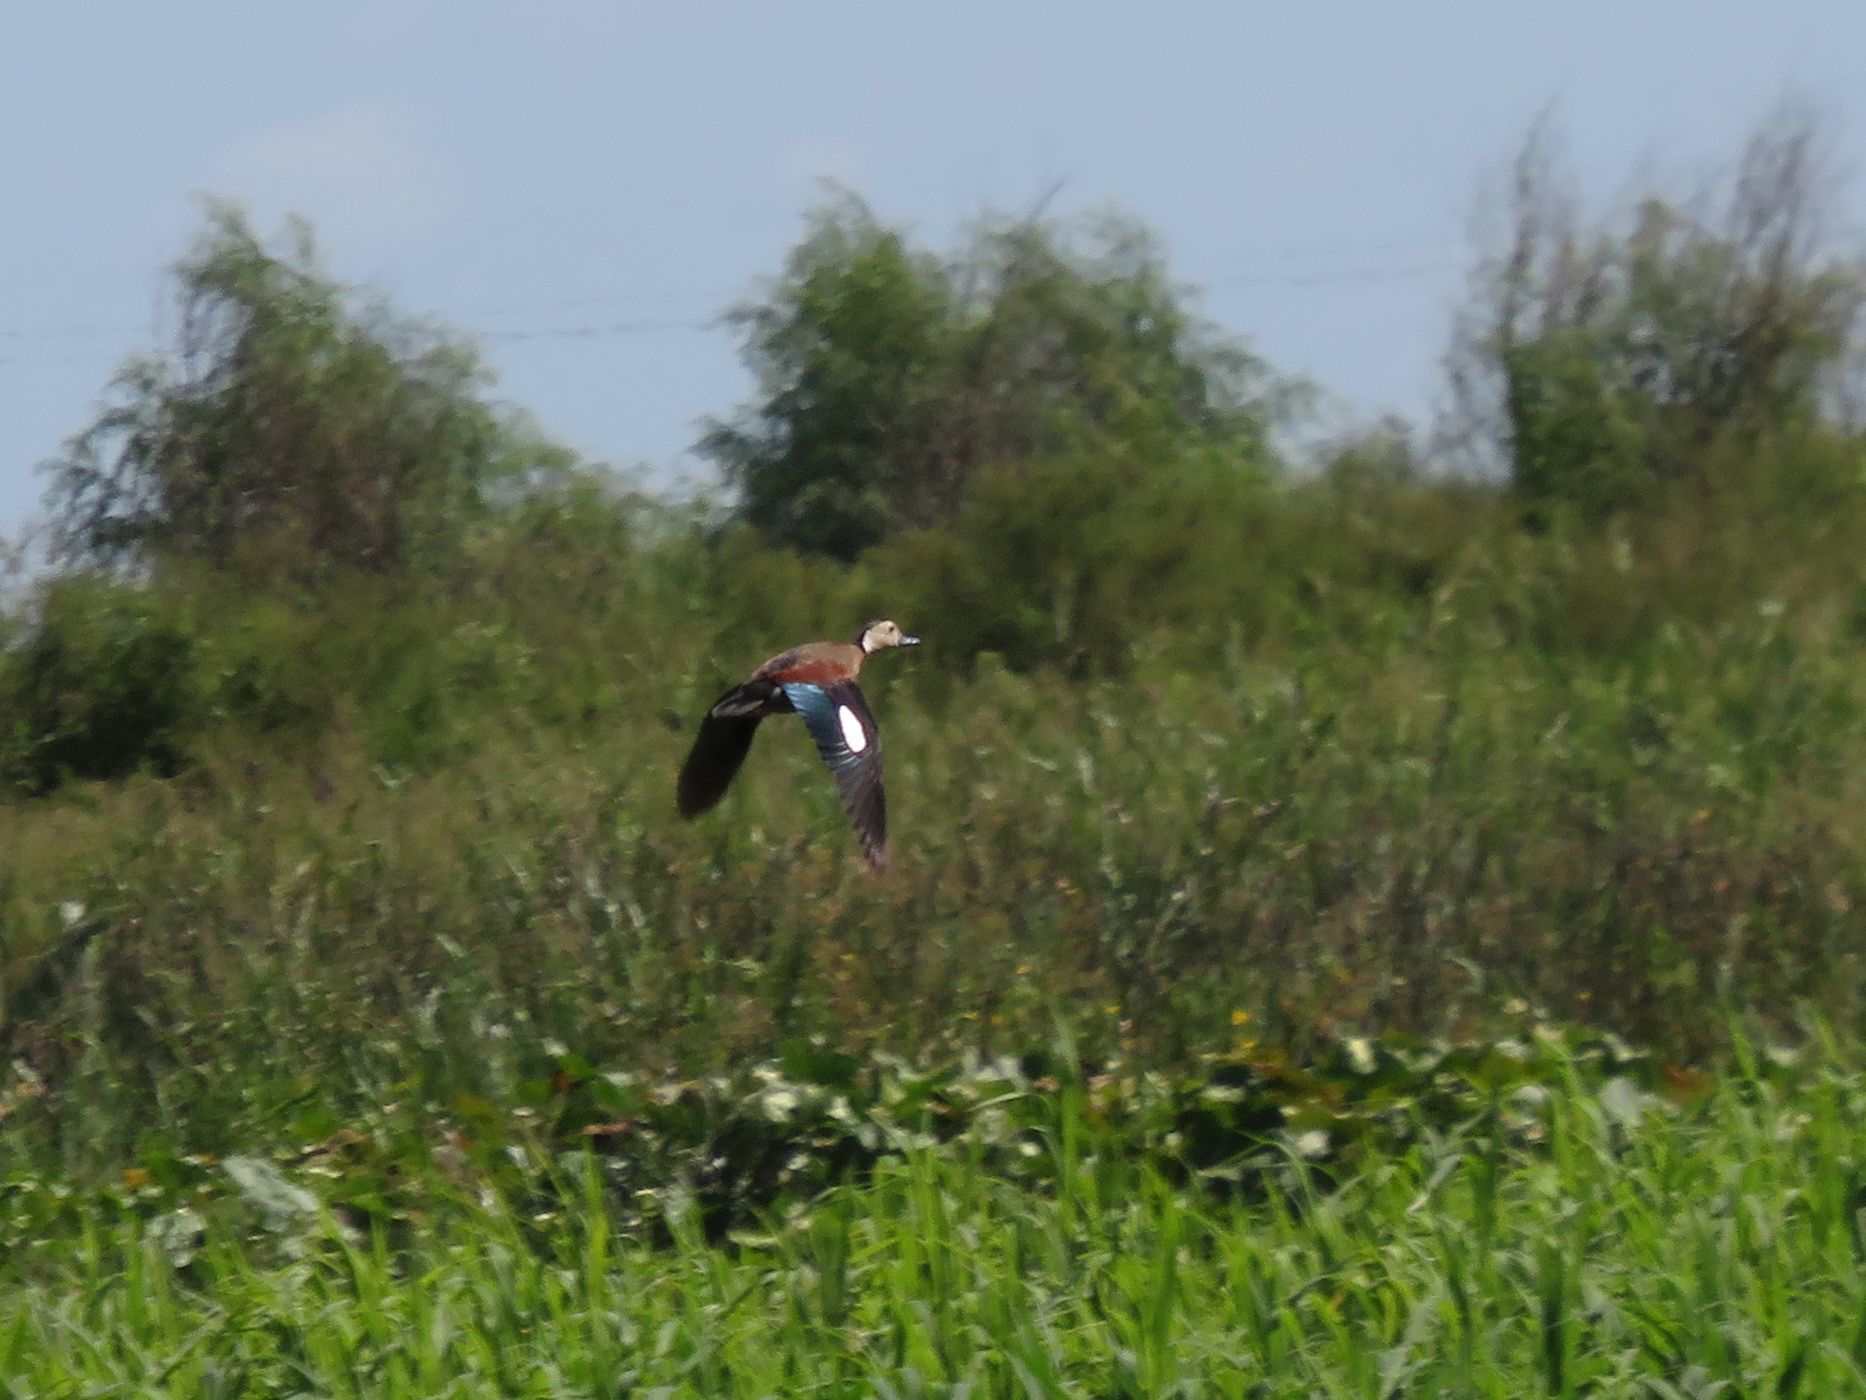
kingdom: Animalia
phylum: Chordata
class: Aves
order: Anseriformes
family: Anatidae
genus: Callonetta
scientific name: Callonetta leucophrys
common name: Ringed teal
